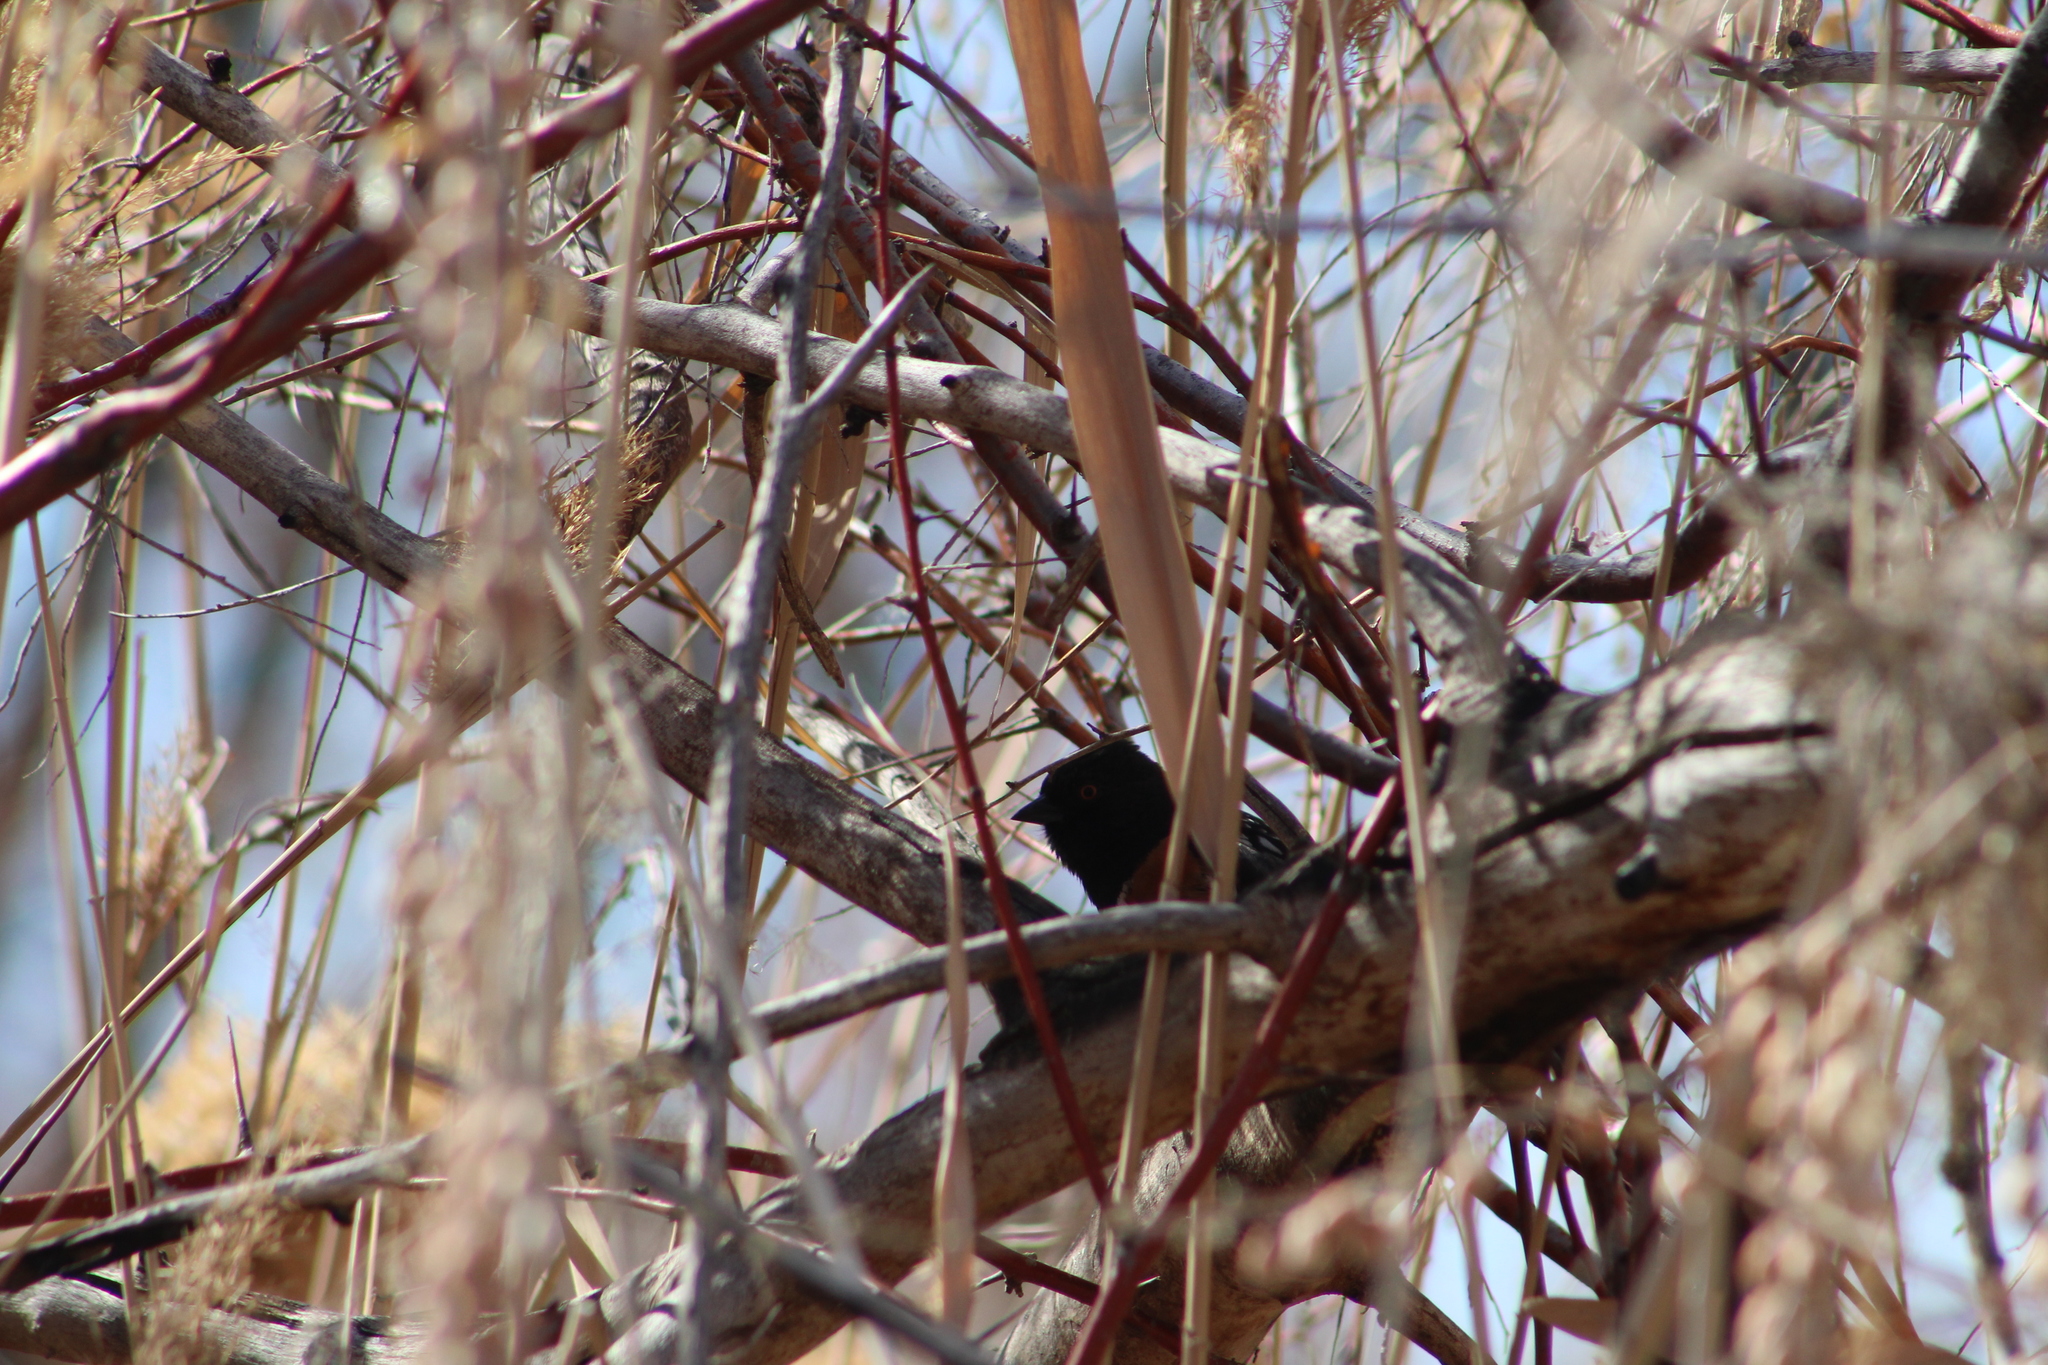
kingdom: Animalia
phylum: Chordata
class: Aves
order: Passeriformes
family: Passerellidae
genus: Pipilo
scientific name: Pipilo maculatus
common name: Spotted towhee
